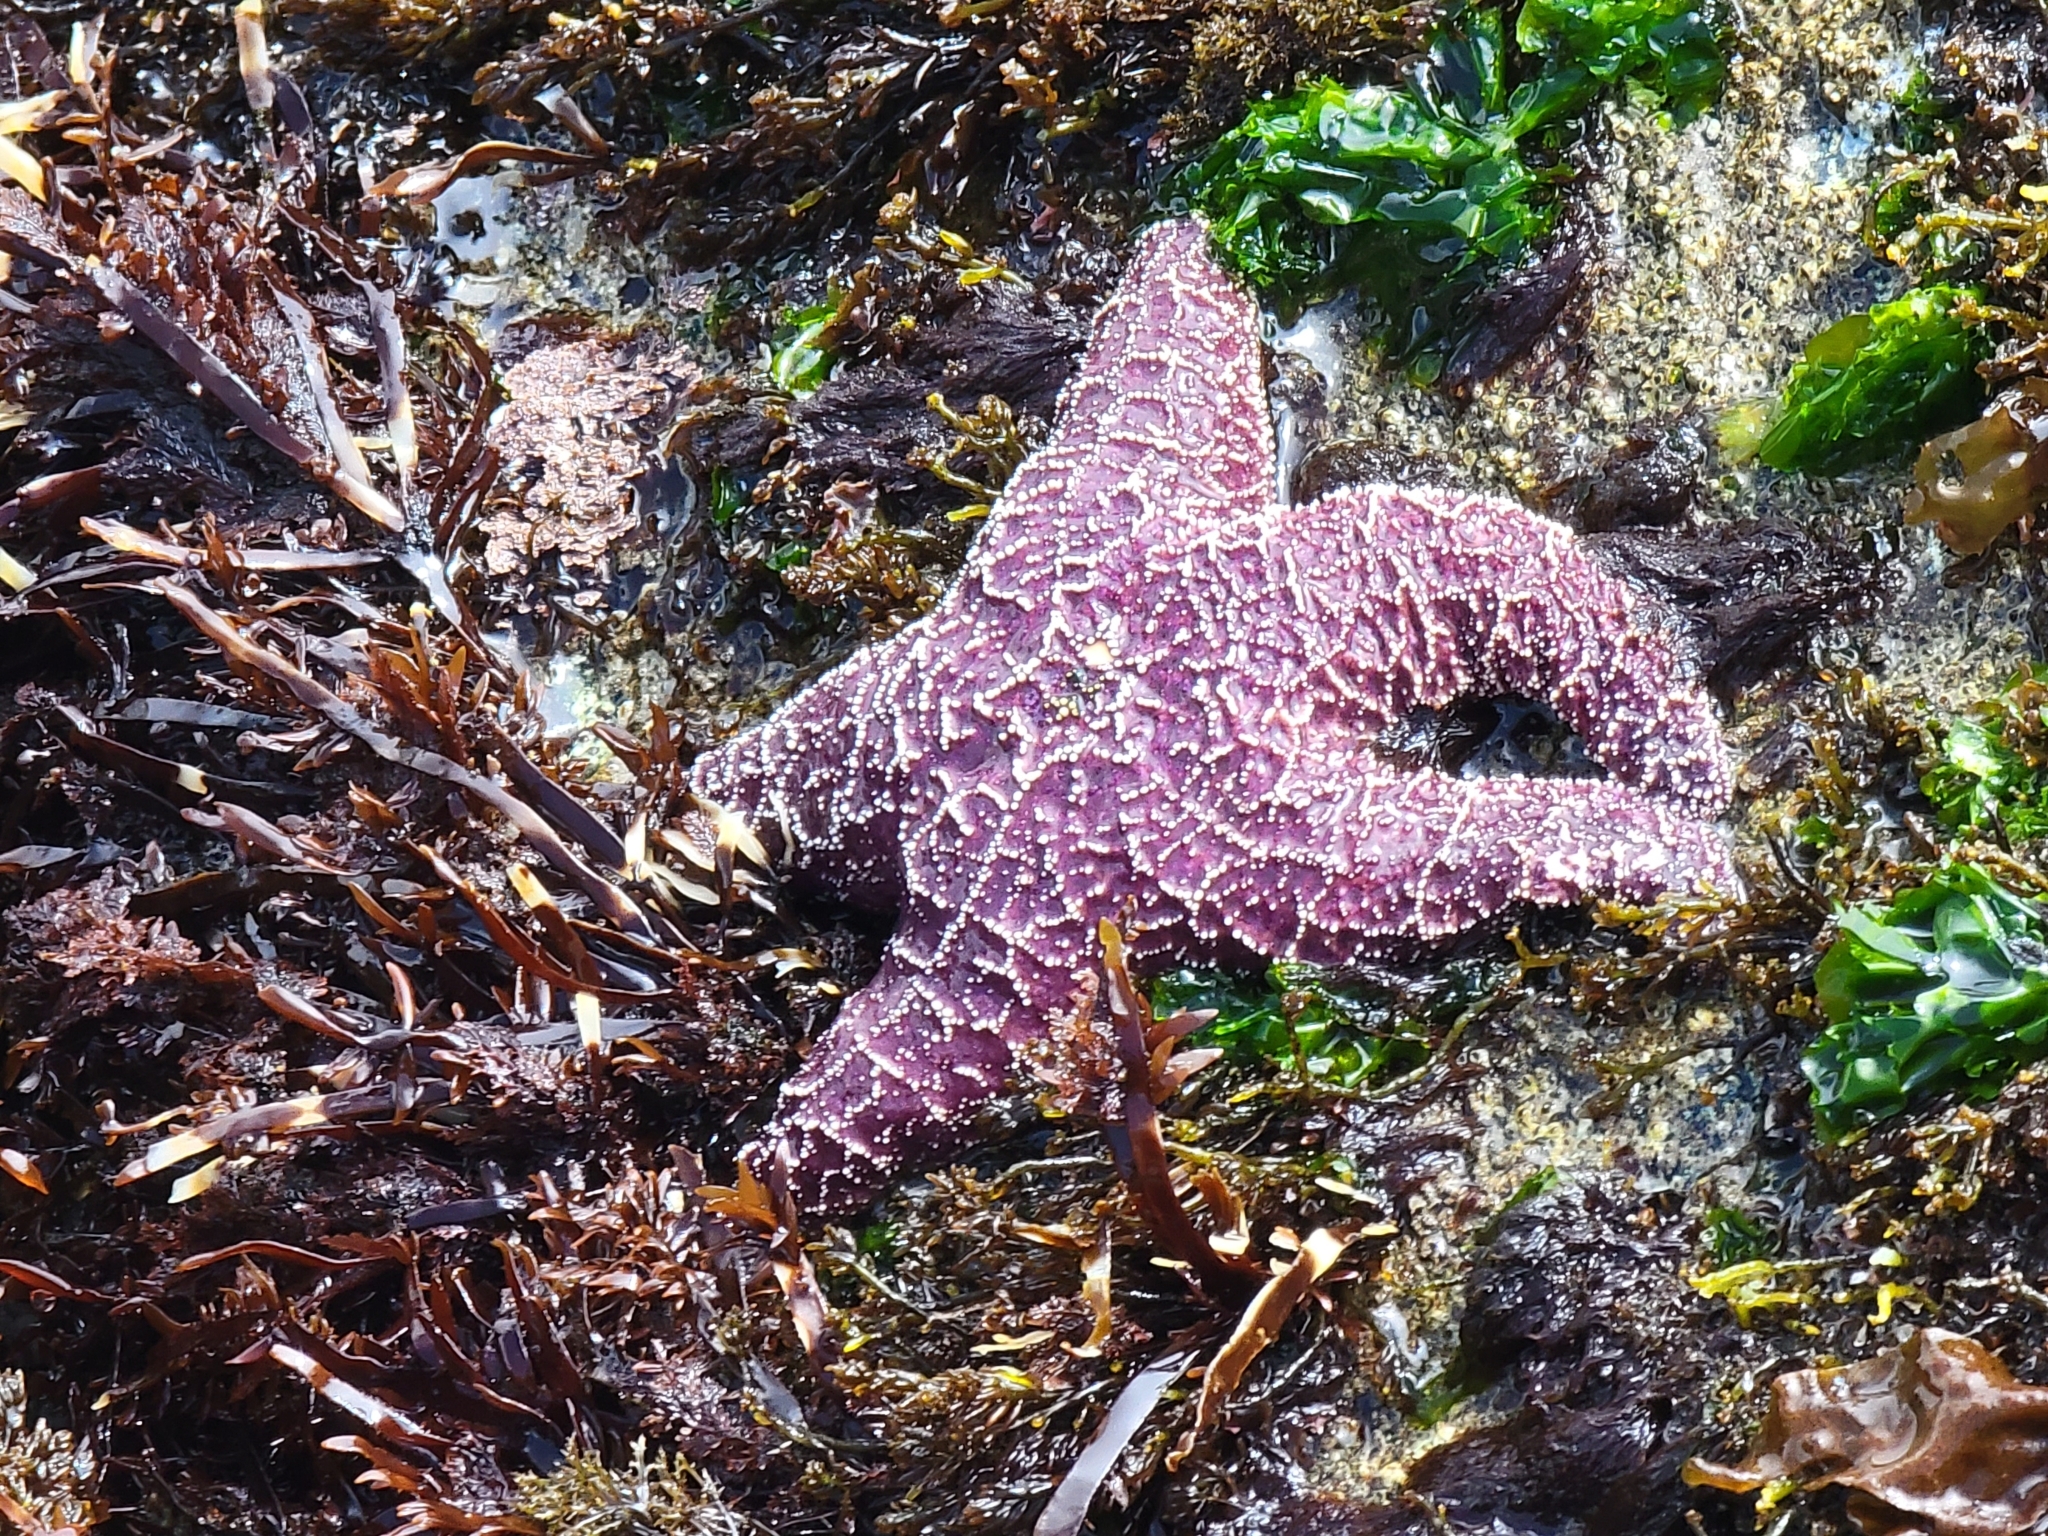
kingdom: Animalia
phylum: Echinodermata
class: Asteroidea
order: Forcipulatida
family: Asteriidae
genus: Pisaster
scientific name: Pisaster ochraceus
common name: Ochre stars
